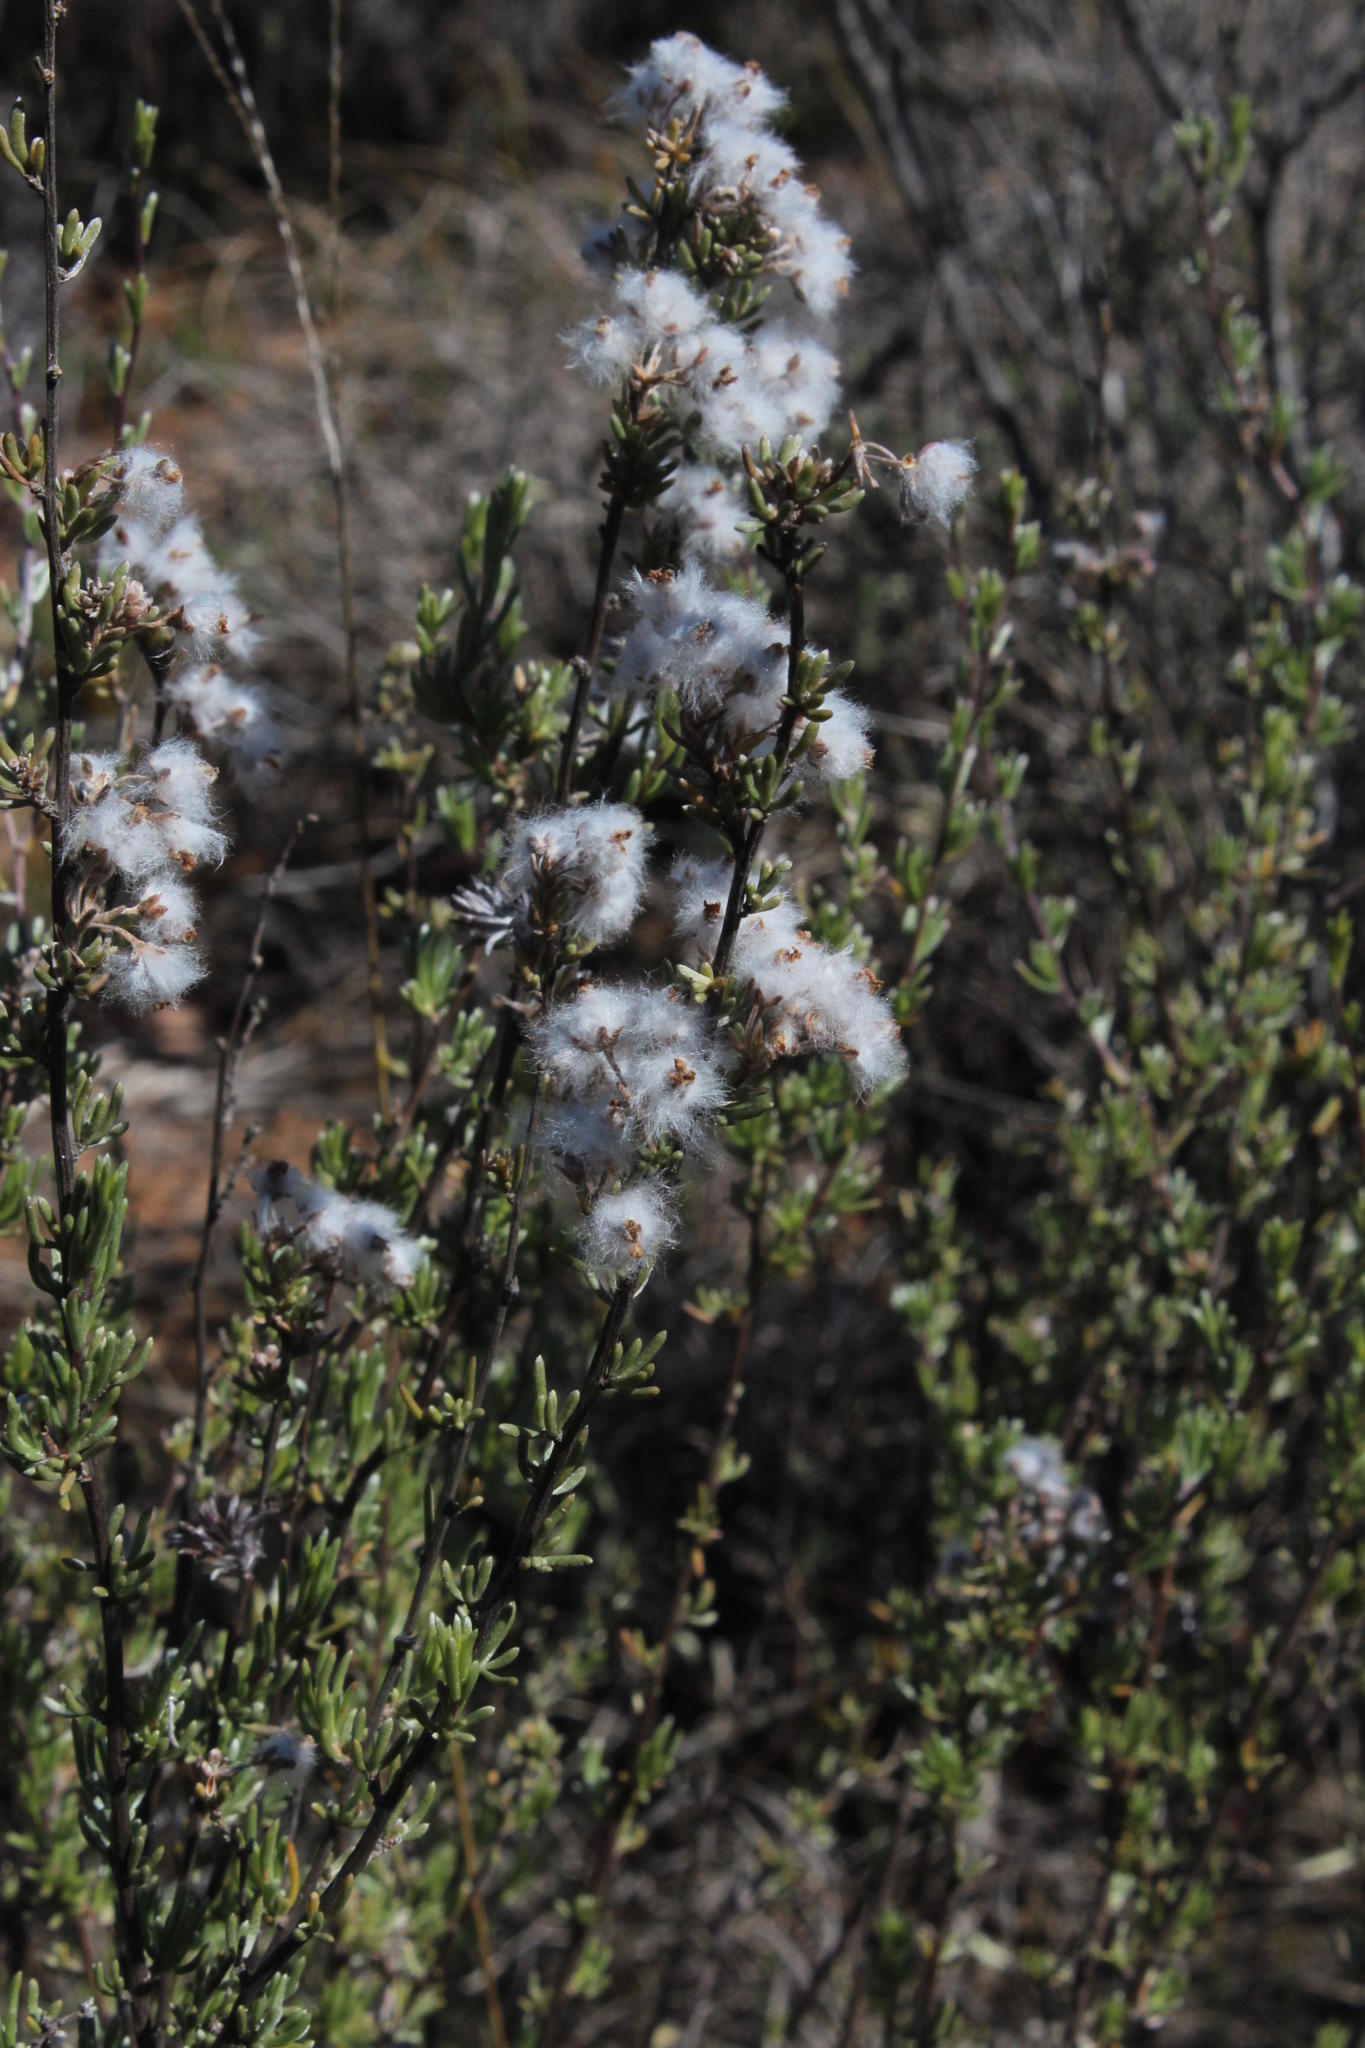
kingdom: Plantae
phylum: Tracheophyta
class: Magnoliopsida
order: Asterales
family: Asteraceae
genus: Eriocephalus
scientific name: Eriocephalus africanus
